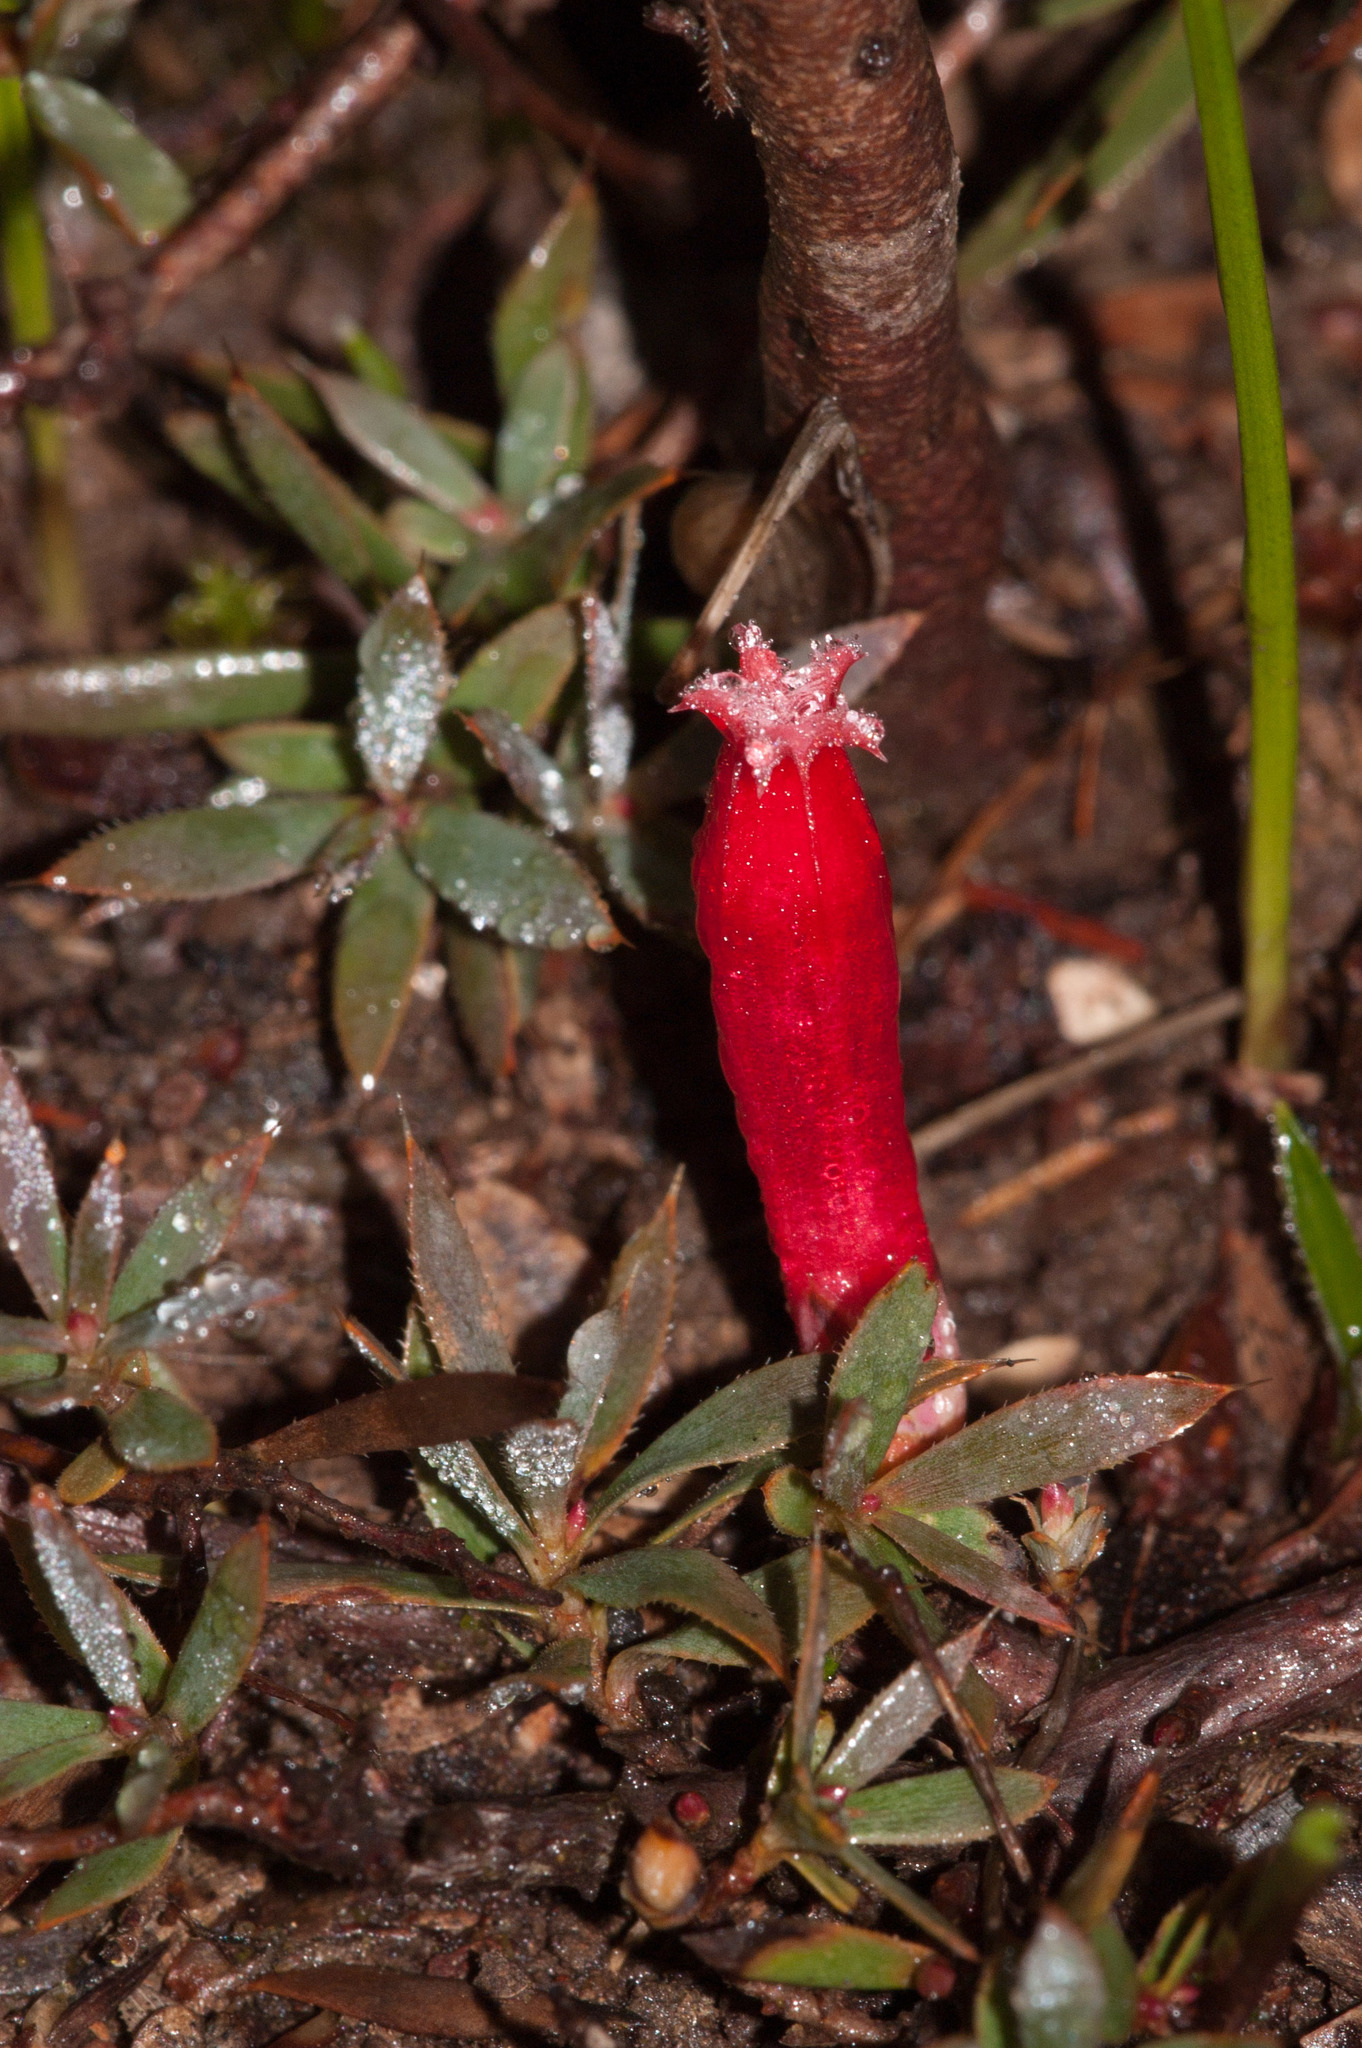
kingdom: Plantae
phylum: Tracheophyta
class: Magnoliopsida
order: Ericales
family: Ericaceae
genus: Styphelia
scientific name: Styphelia humifusa
